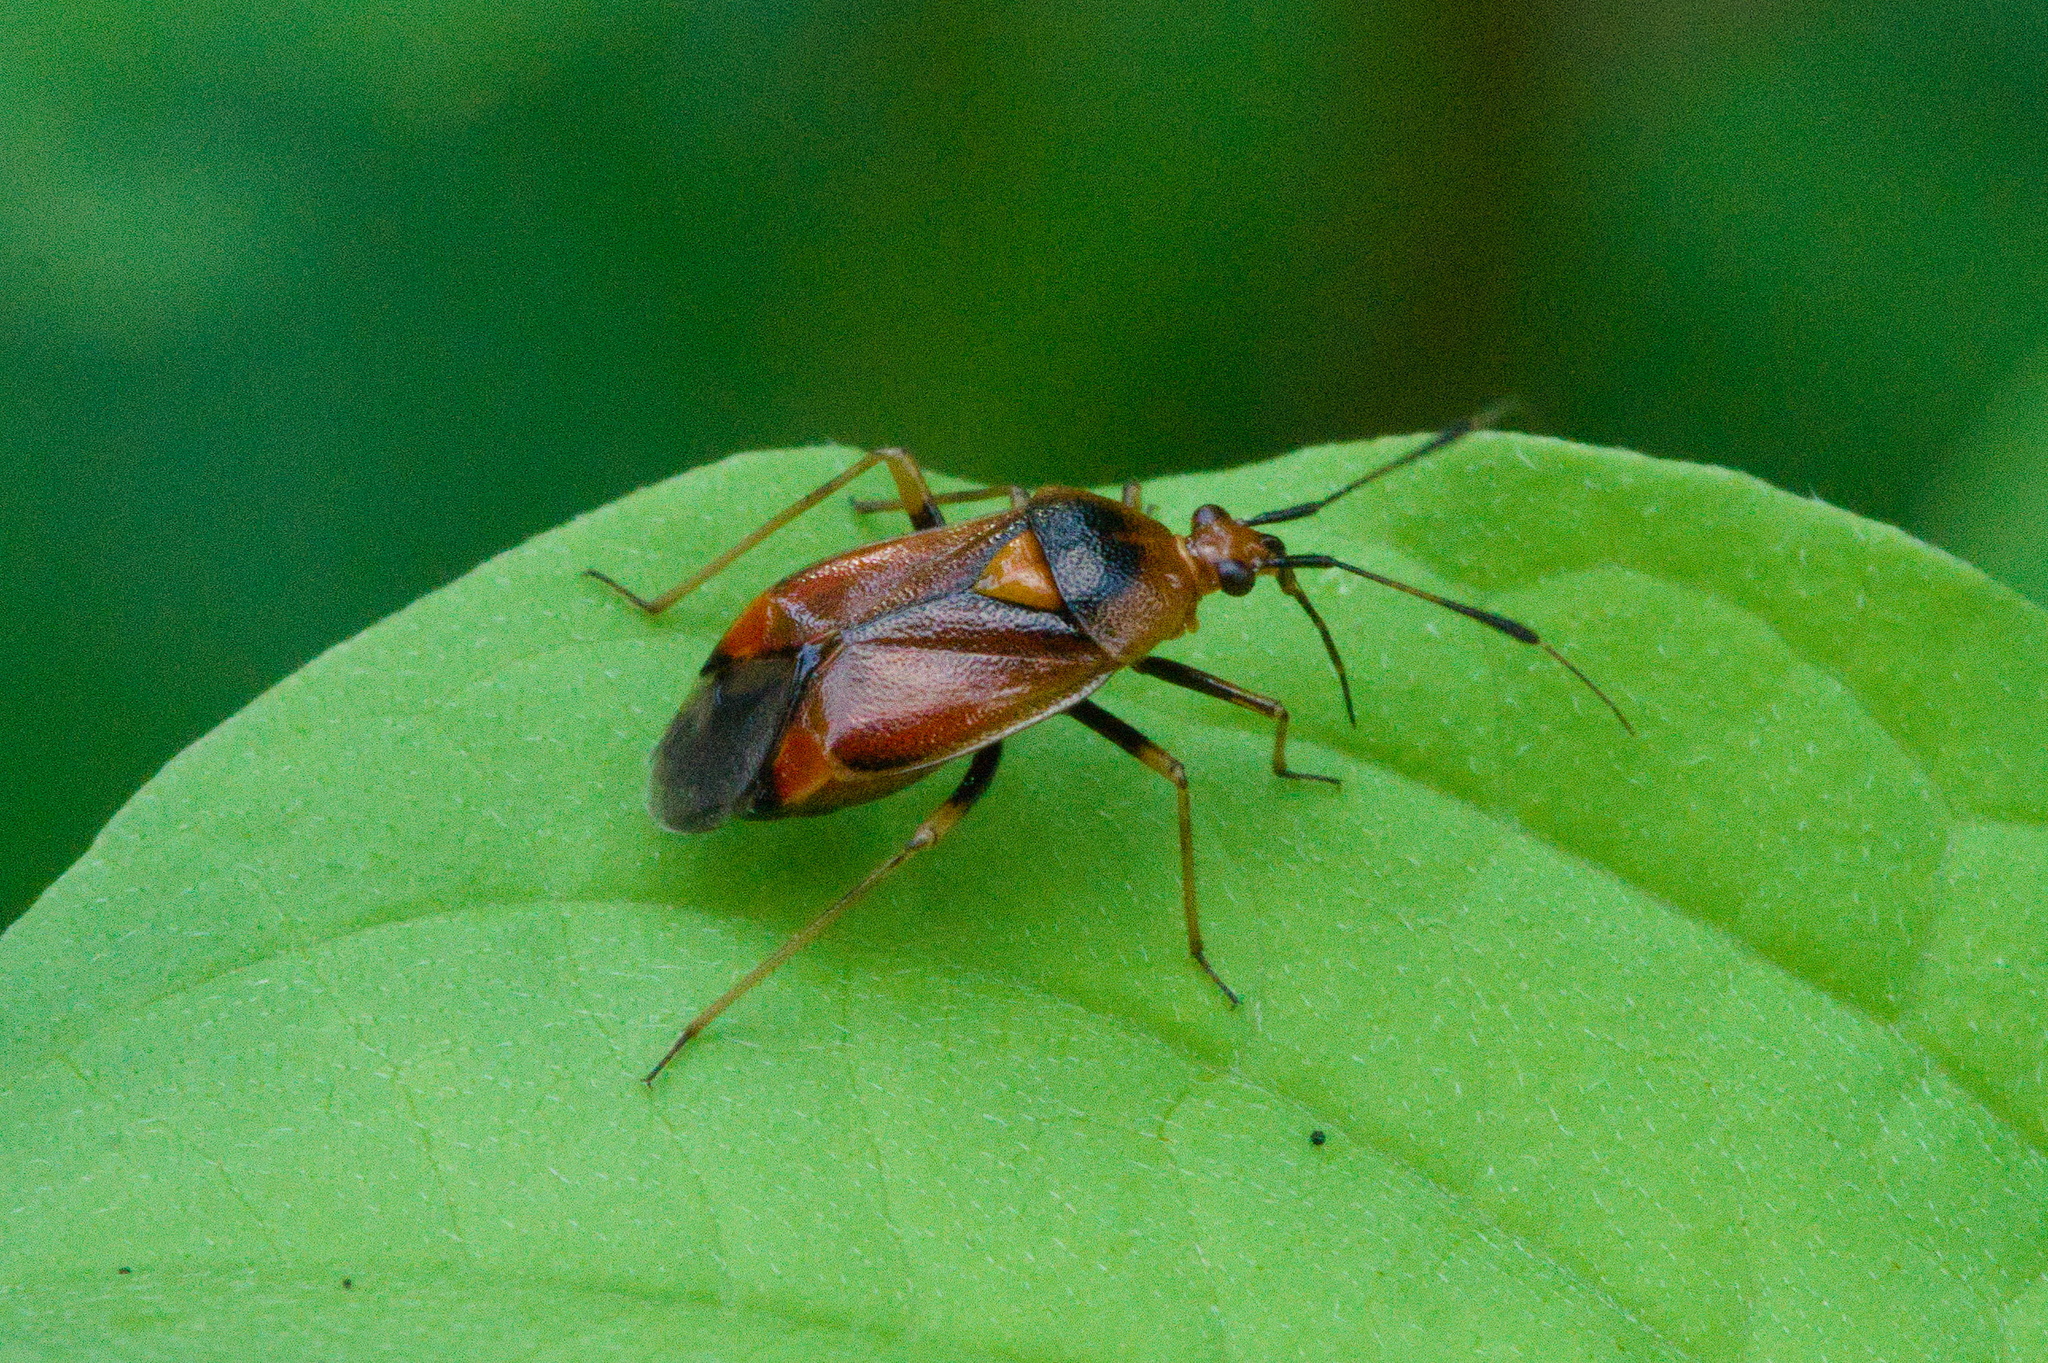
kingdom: Animalia
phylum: Arthropoda
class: Insecta
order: Hemiptera
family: Miridae
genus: Deraeocoris
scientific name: Deraeocoris ruber
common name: Plant bug
